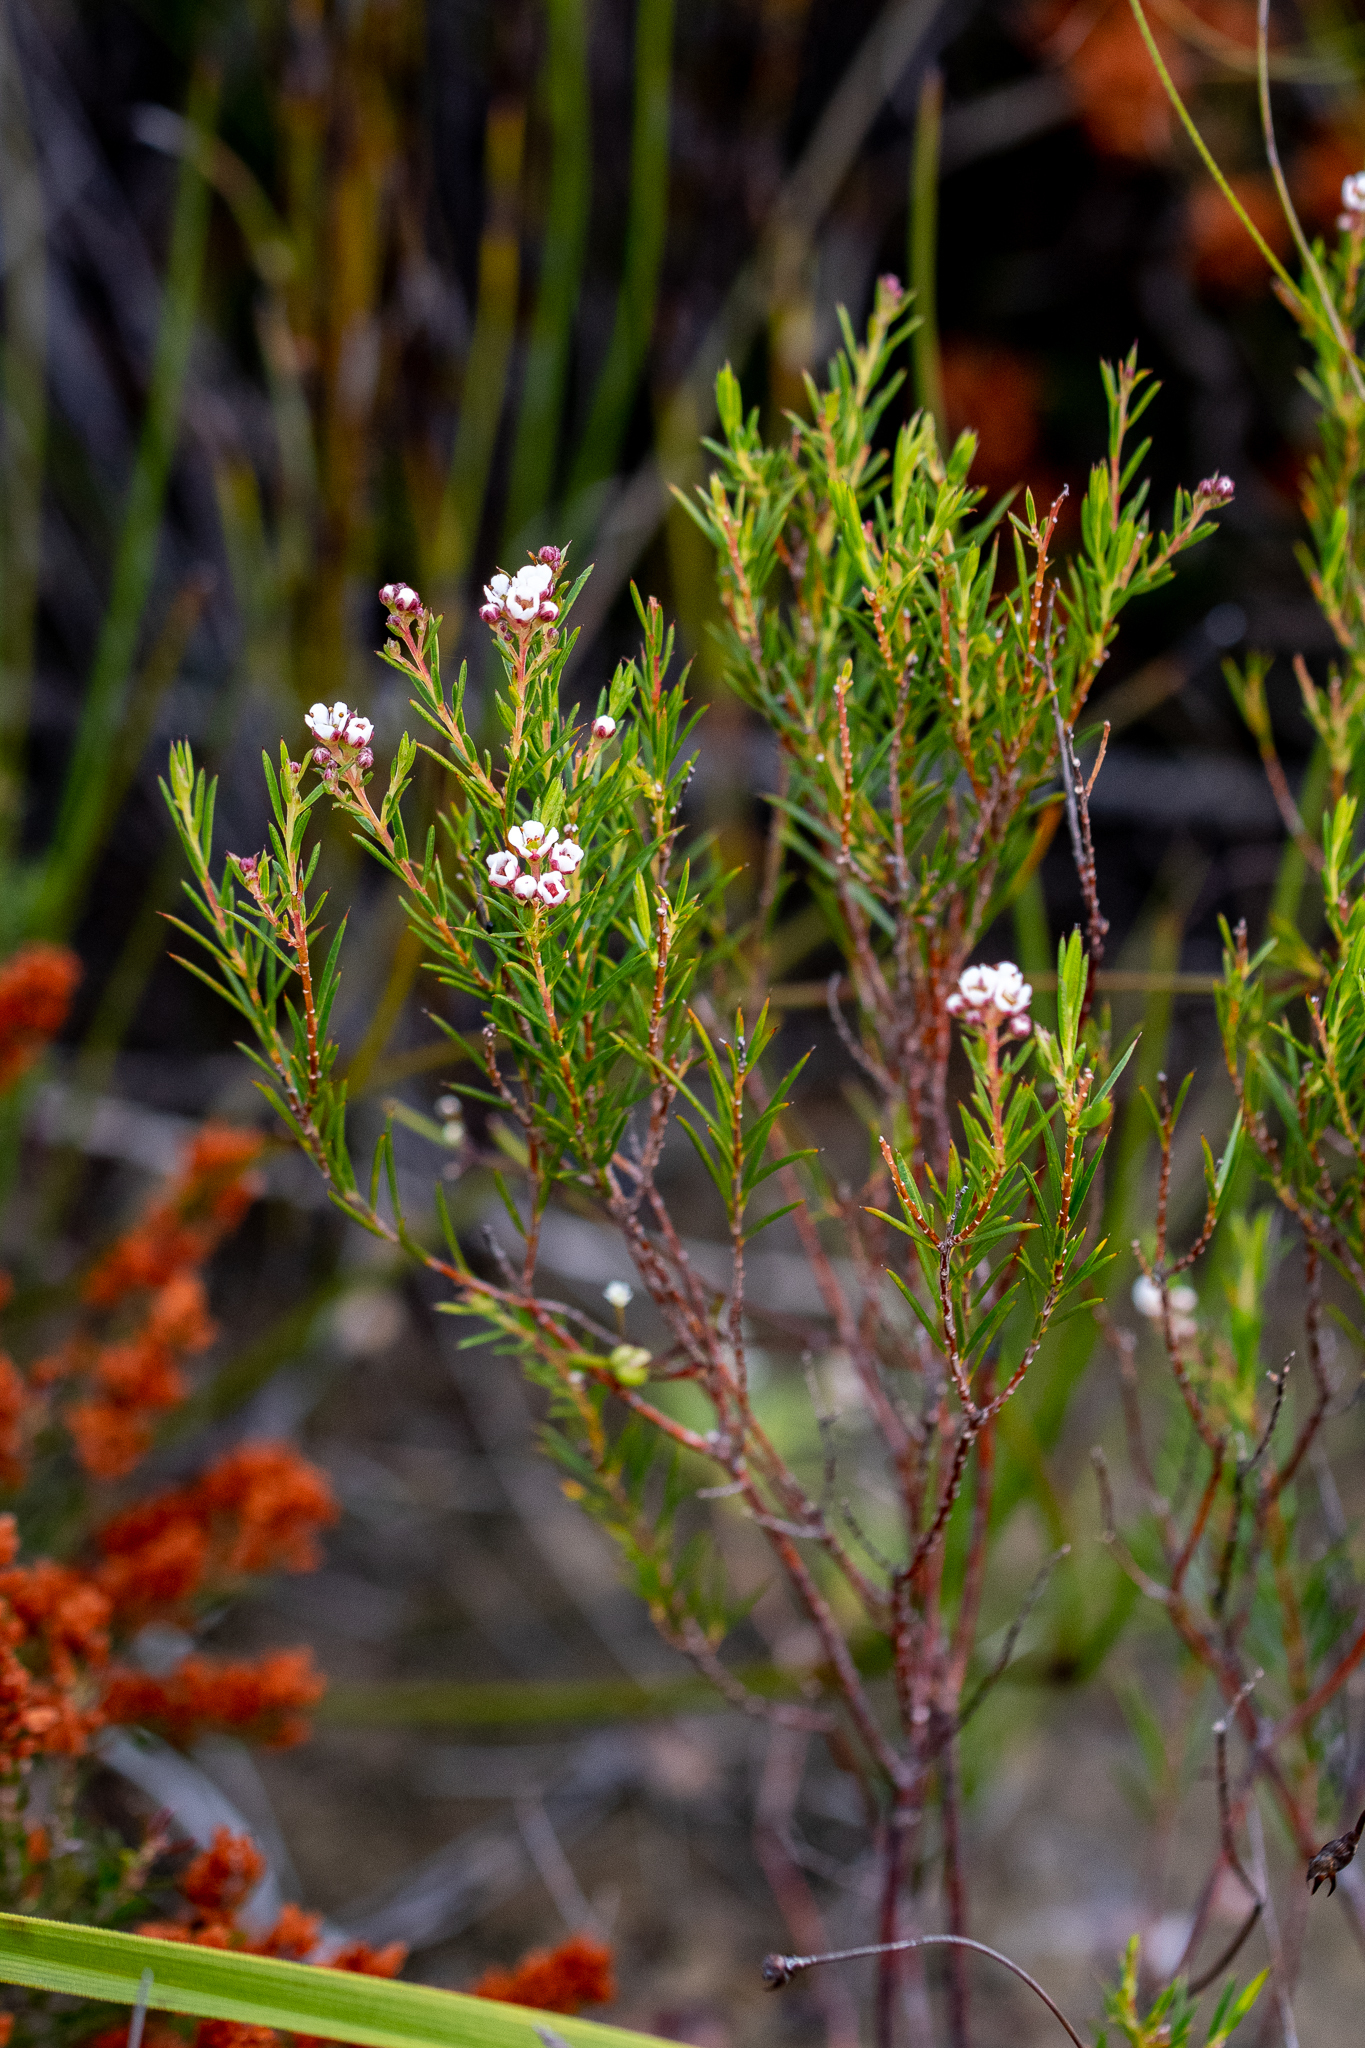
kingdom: Plantae
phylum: Tracheophyta
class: Magnoliopsida
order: Sapindales
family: Rutaceae
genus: Diosma
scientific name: Diosma hirsuta
